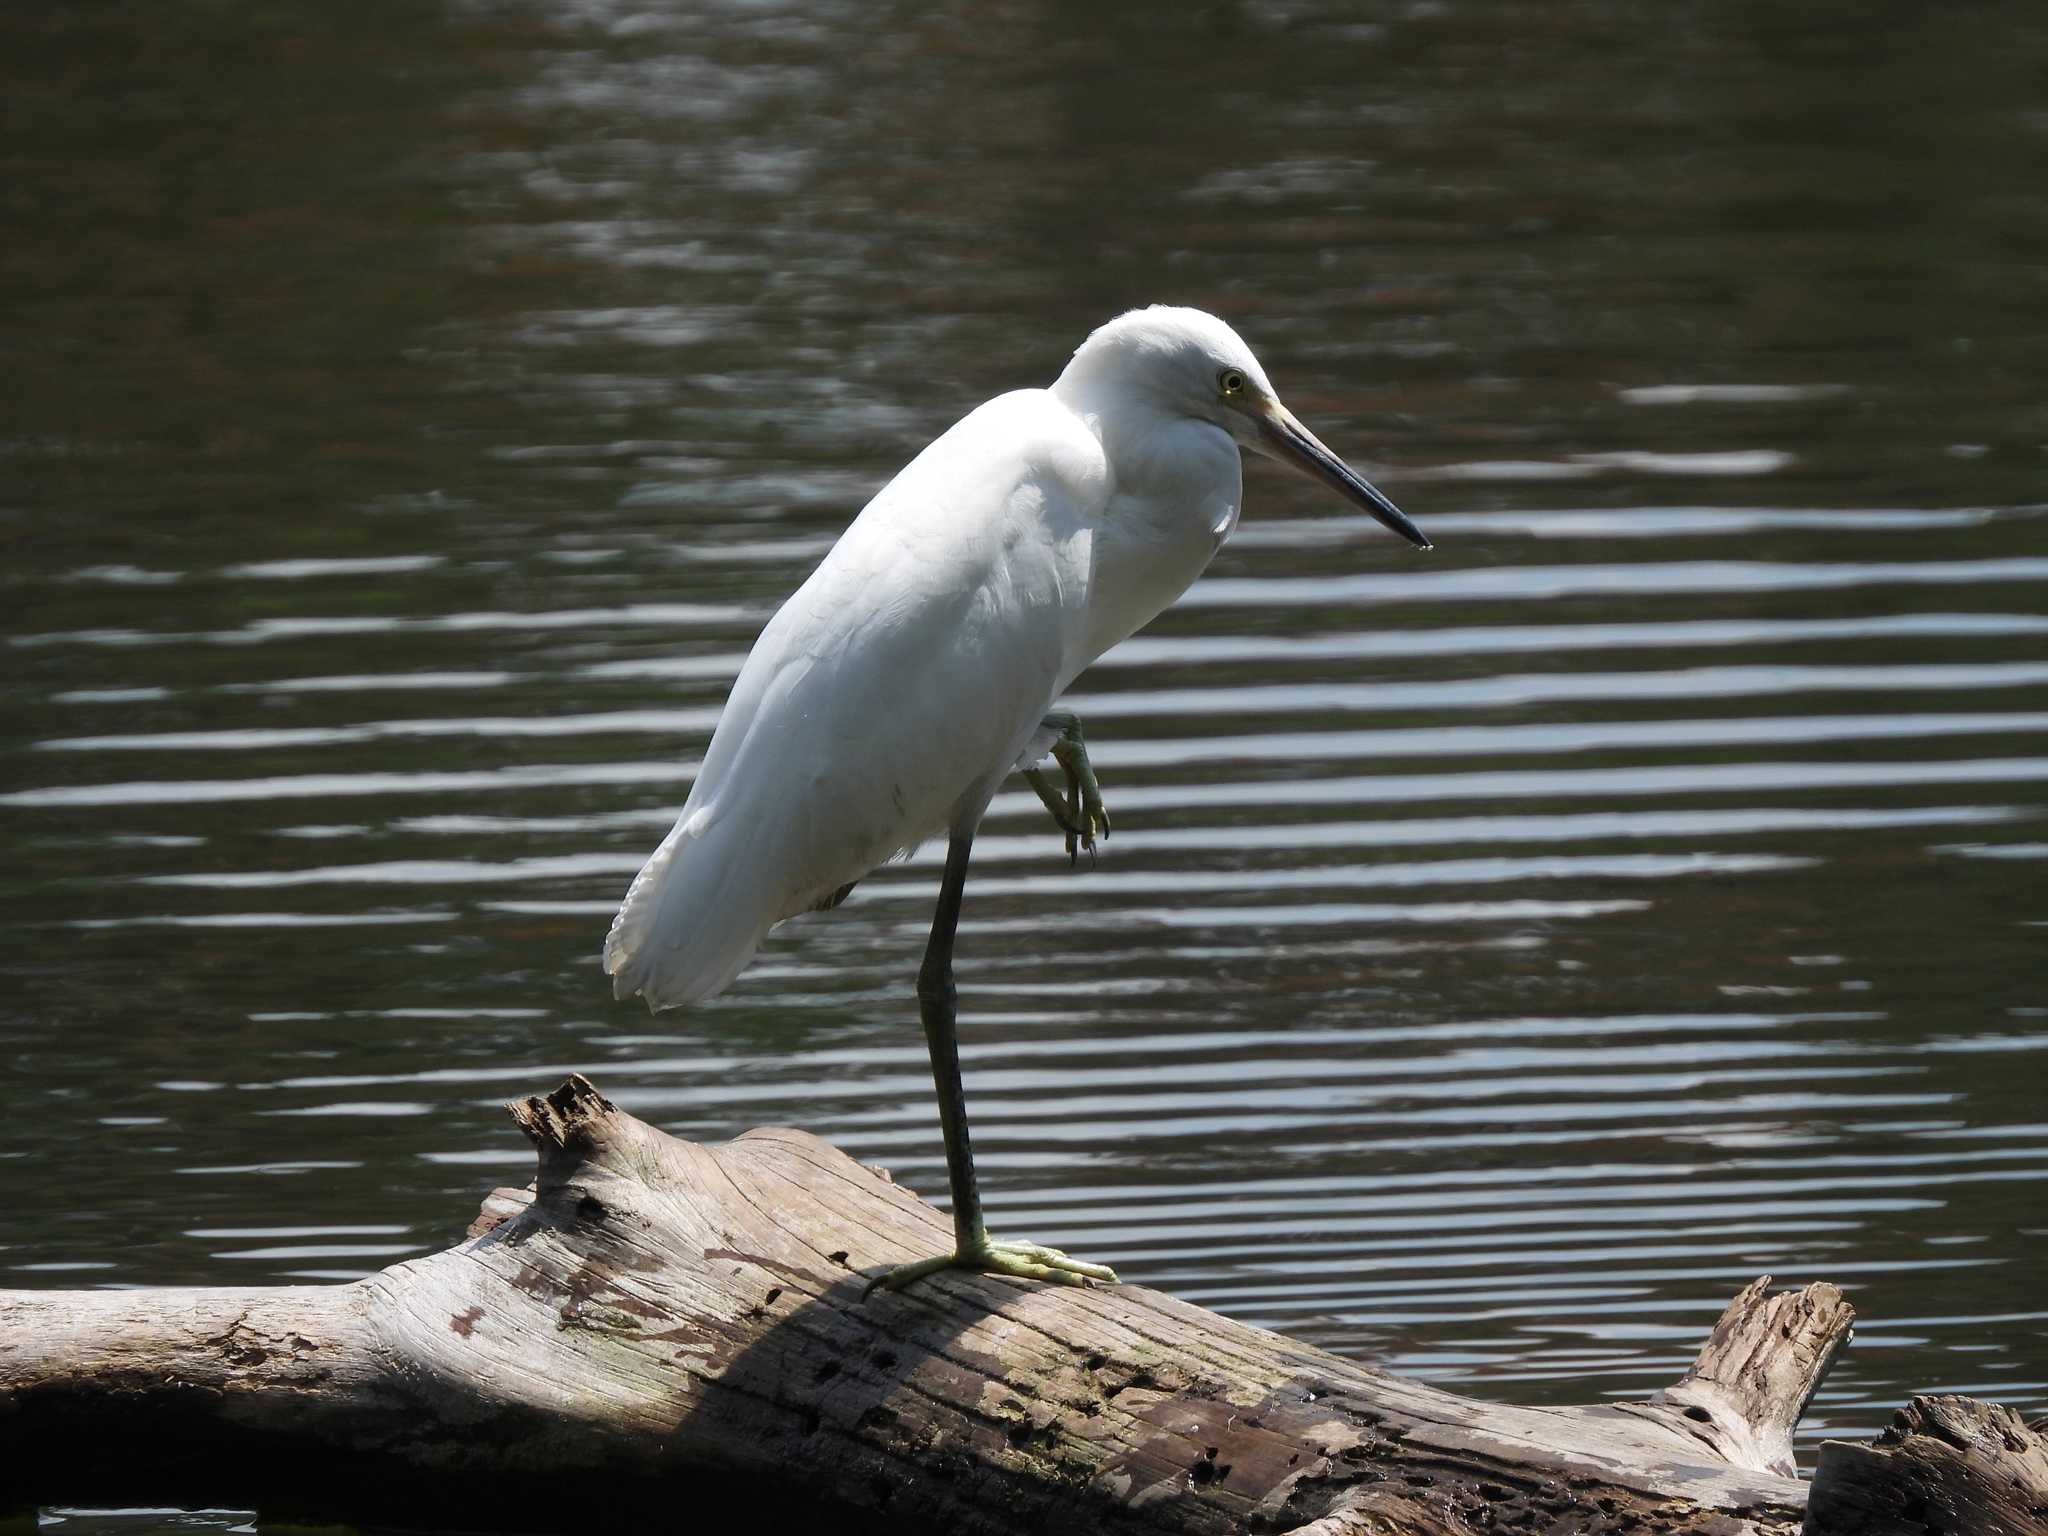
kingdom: Animalia
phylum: Chordata
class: Aves
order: Pelecaniformes
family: Ardeidae
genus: Egretta
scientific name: Egretta caerulea
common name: Little blue heron
